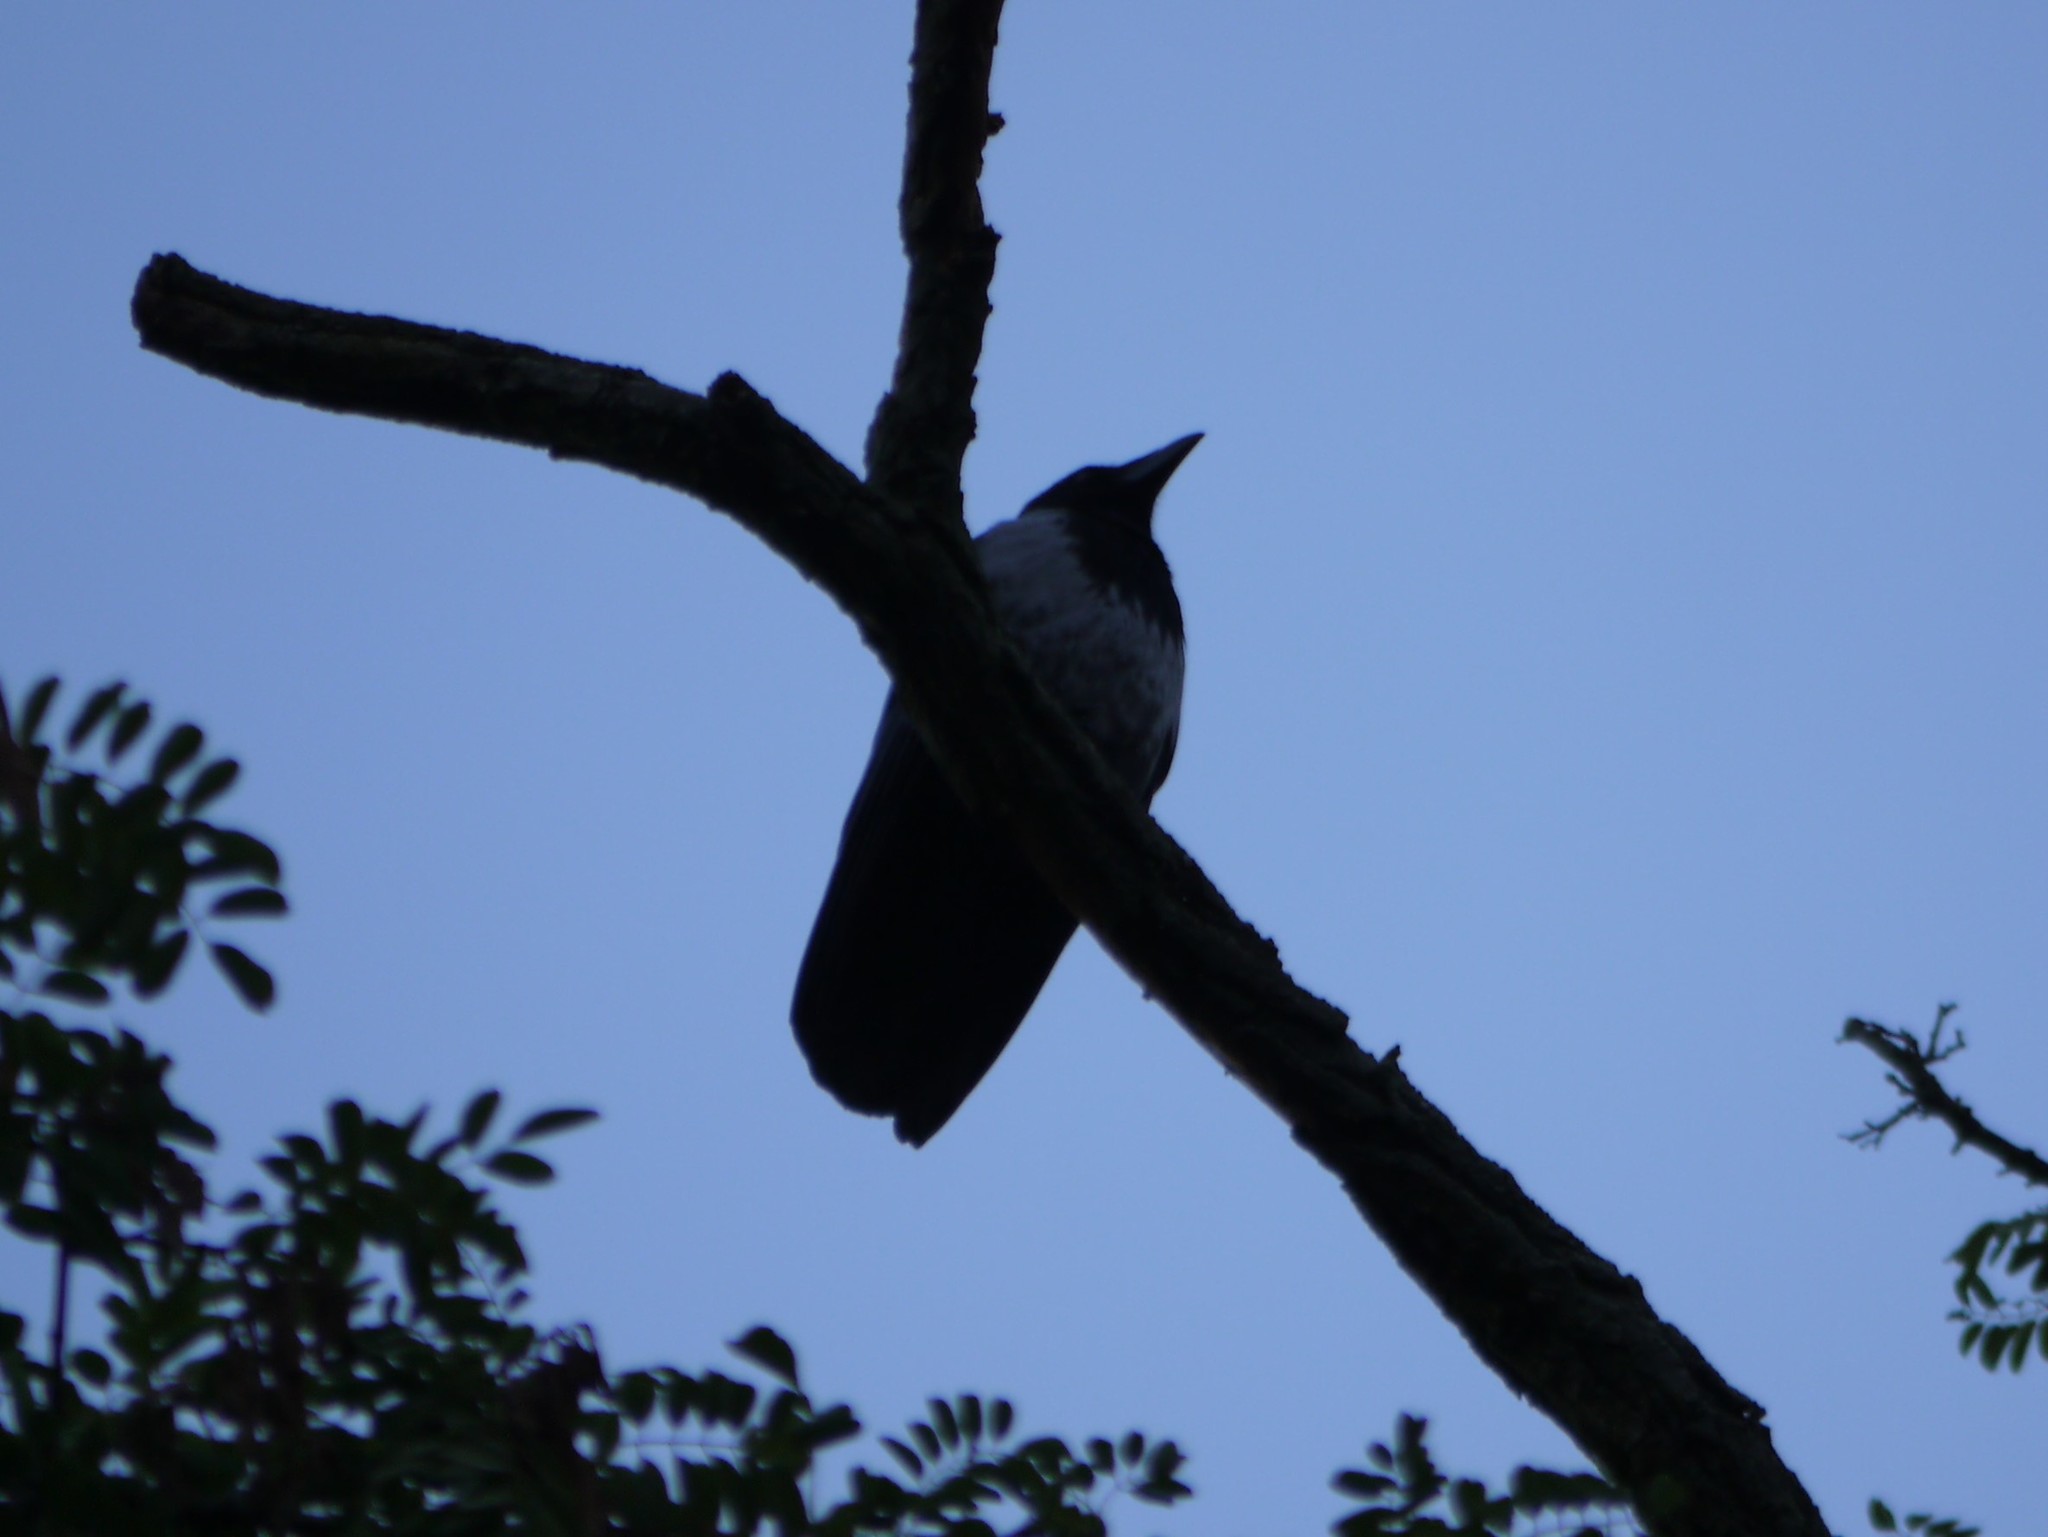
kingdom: Animalia
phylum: Chordata
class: Aves
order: Passeriformes
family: Corvidae
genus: Corvus
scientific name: Corvus cornix
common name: Hooded crow
